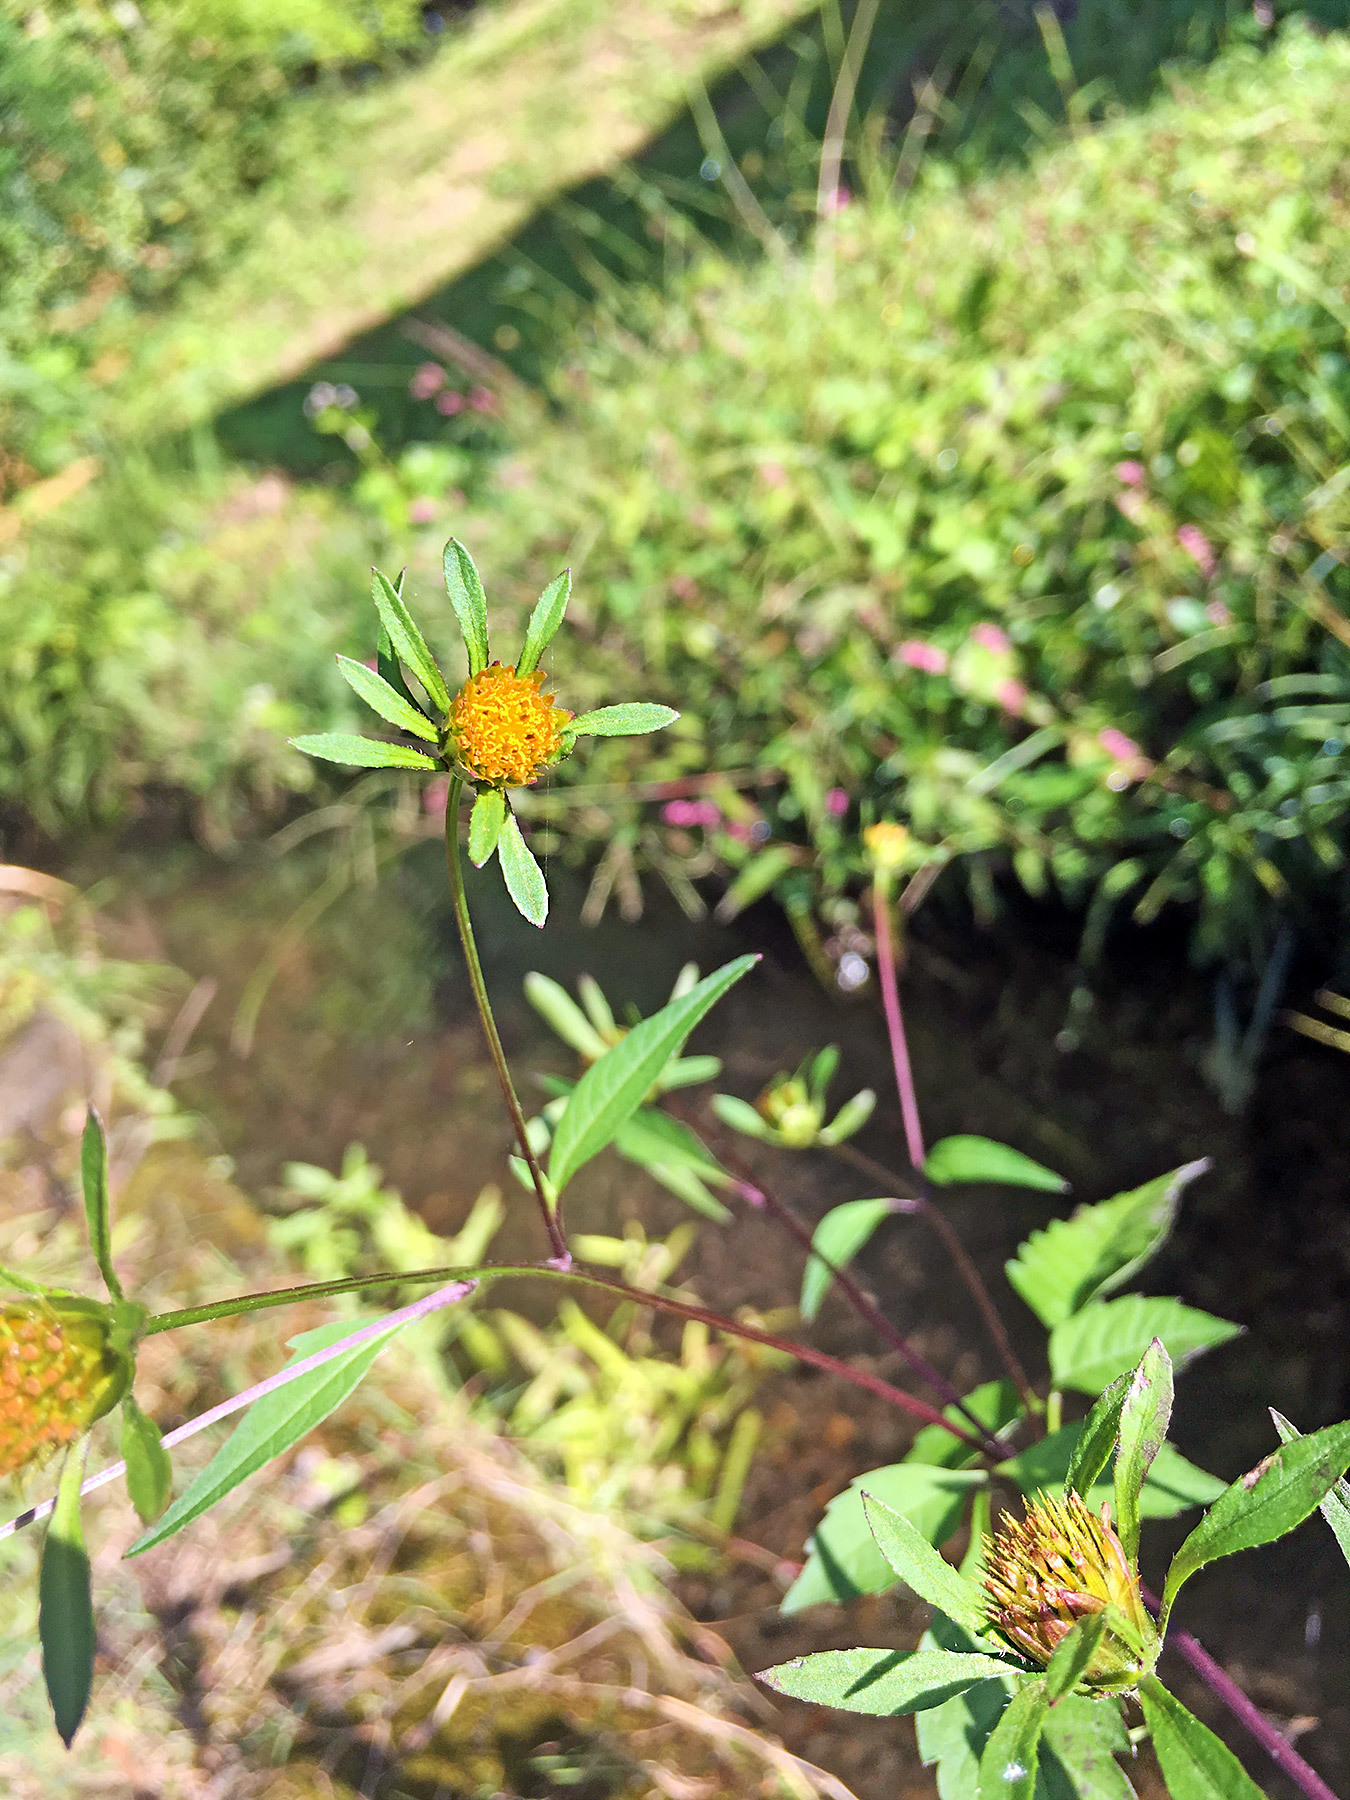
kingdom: Plantae
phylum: Tracheophyta
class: Magnoliopsida
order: Asterales
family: Asteraceae
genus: Bidens
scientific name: Bidens frondosa
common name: Beggarticks
